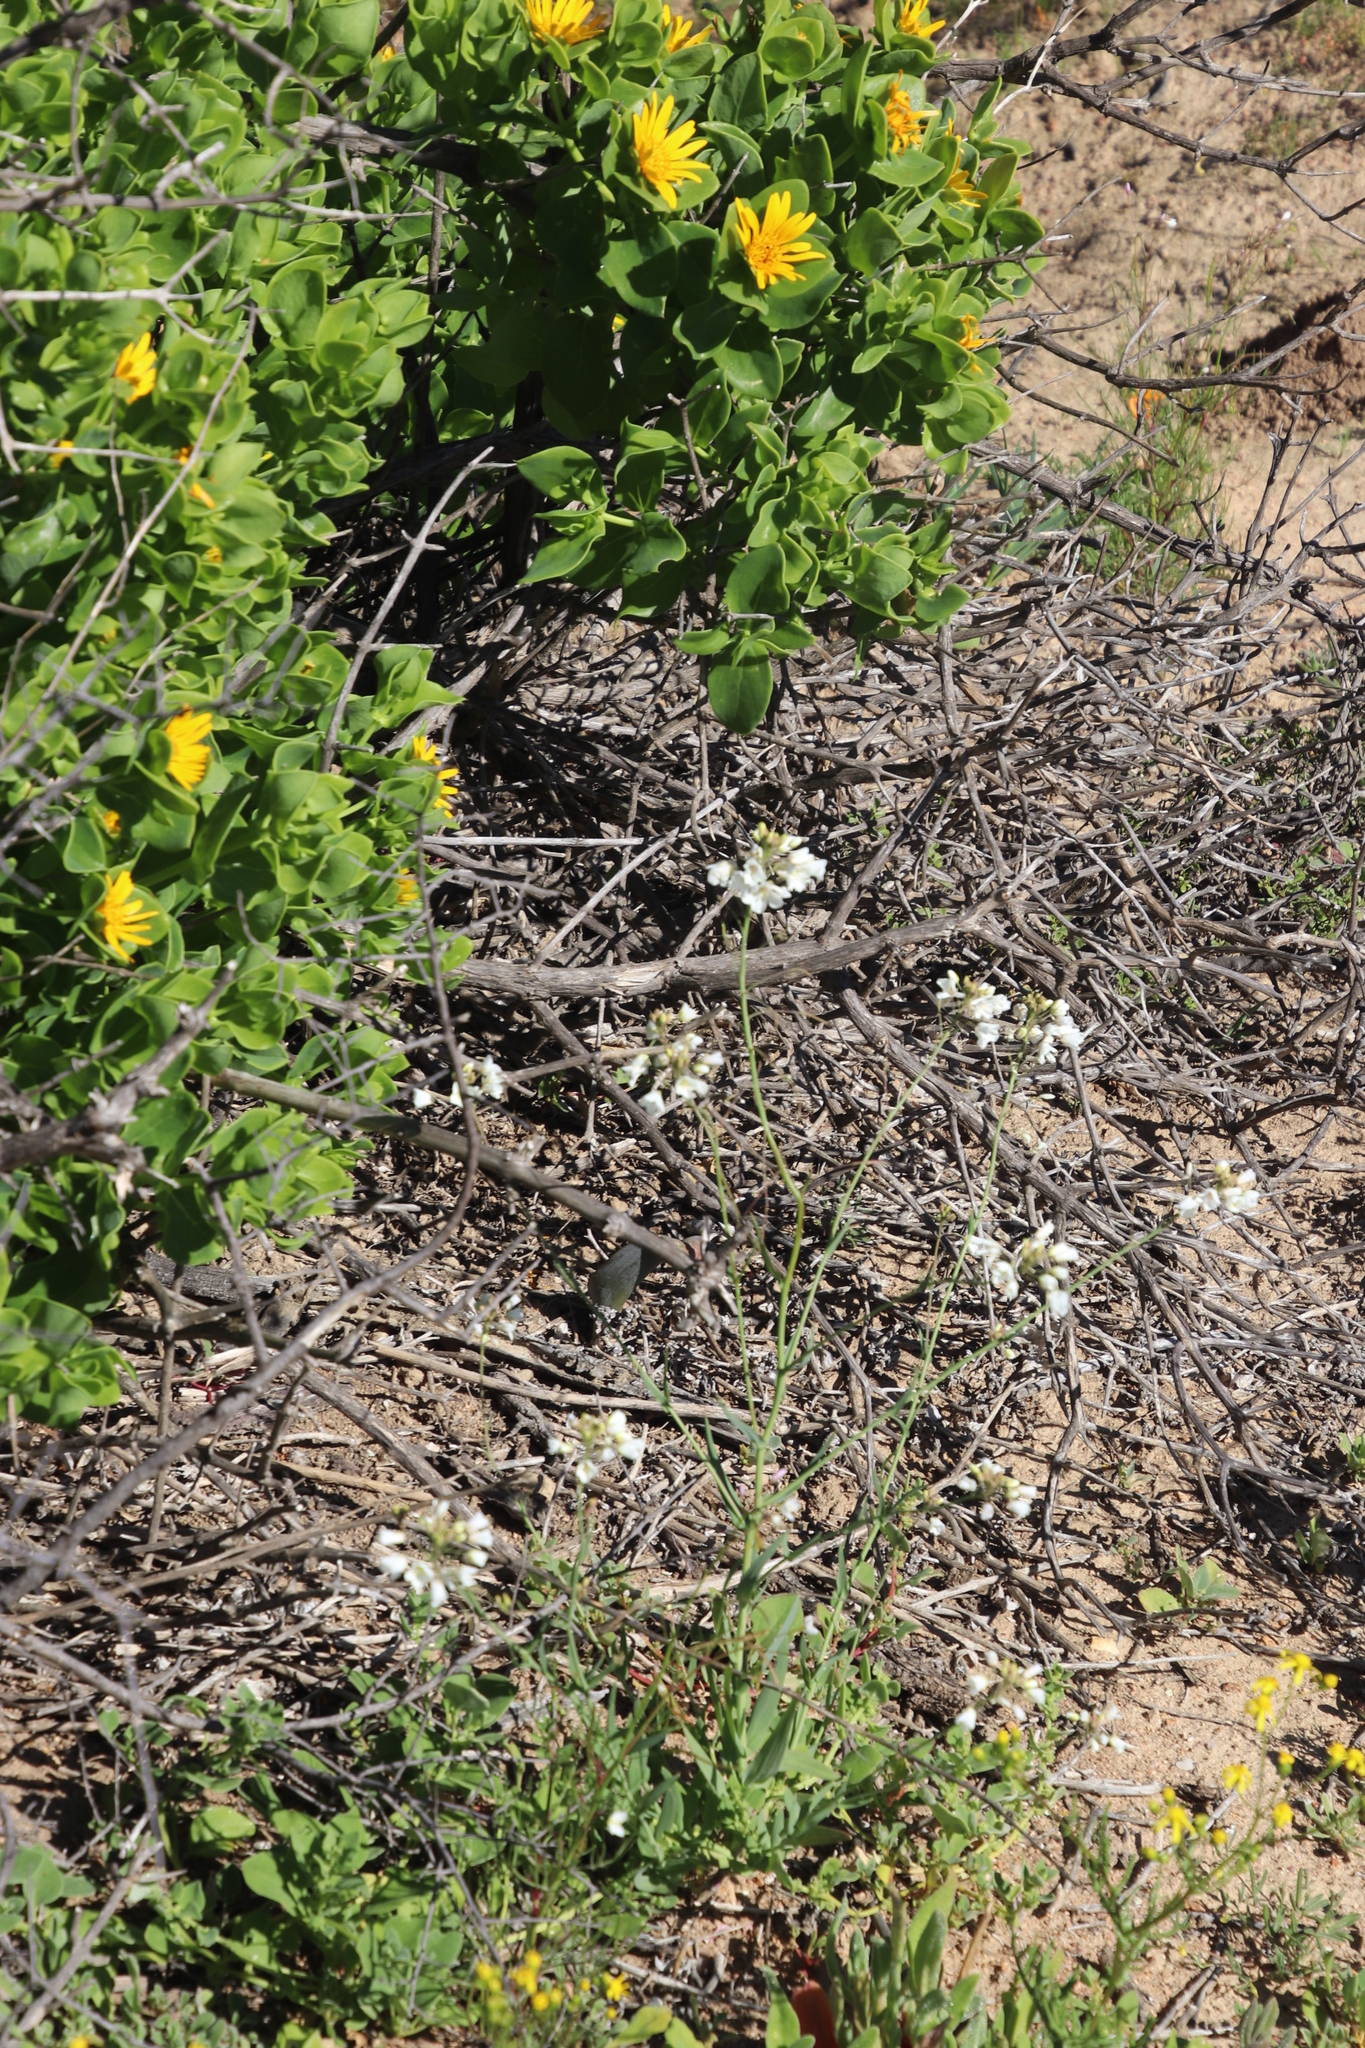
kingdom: Plantae
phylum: Tracheophyta
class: Magnoliopsida
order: Brassicales
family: Brassicaceae
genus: Heliophila
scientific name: Heliophila amplexicaulis
